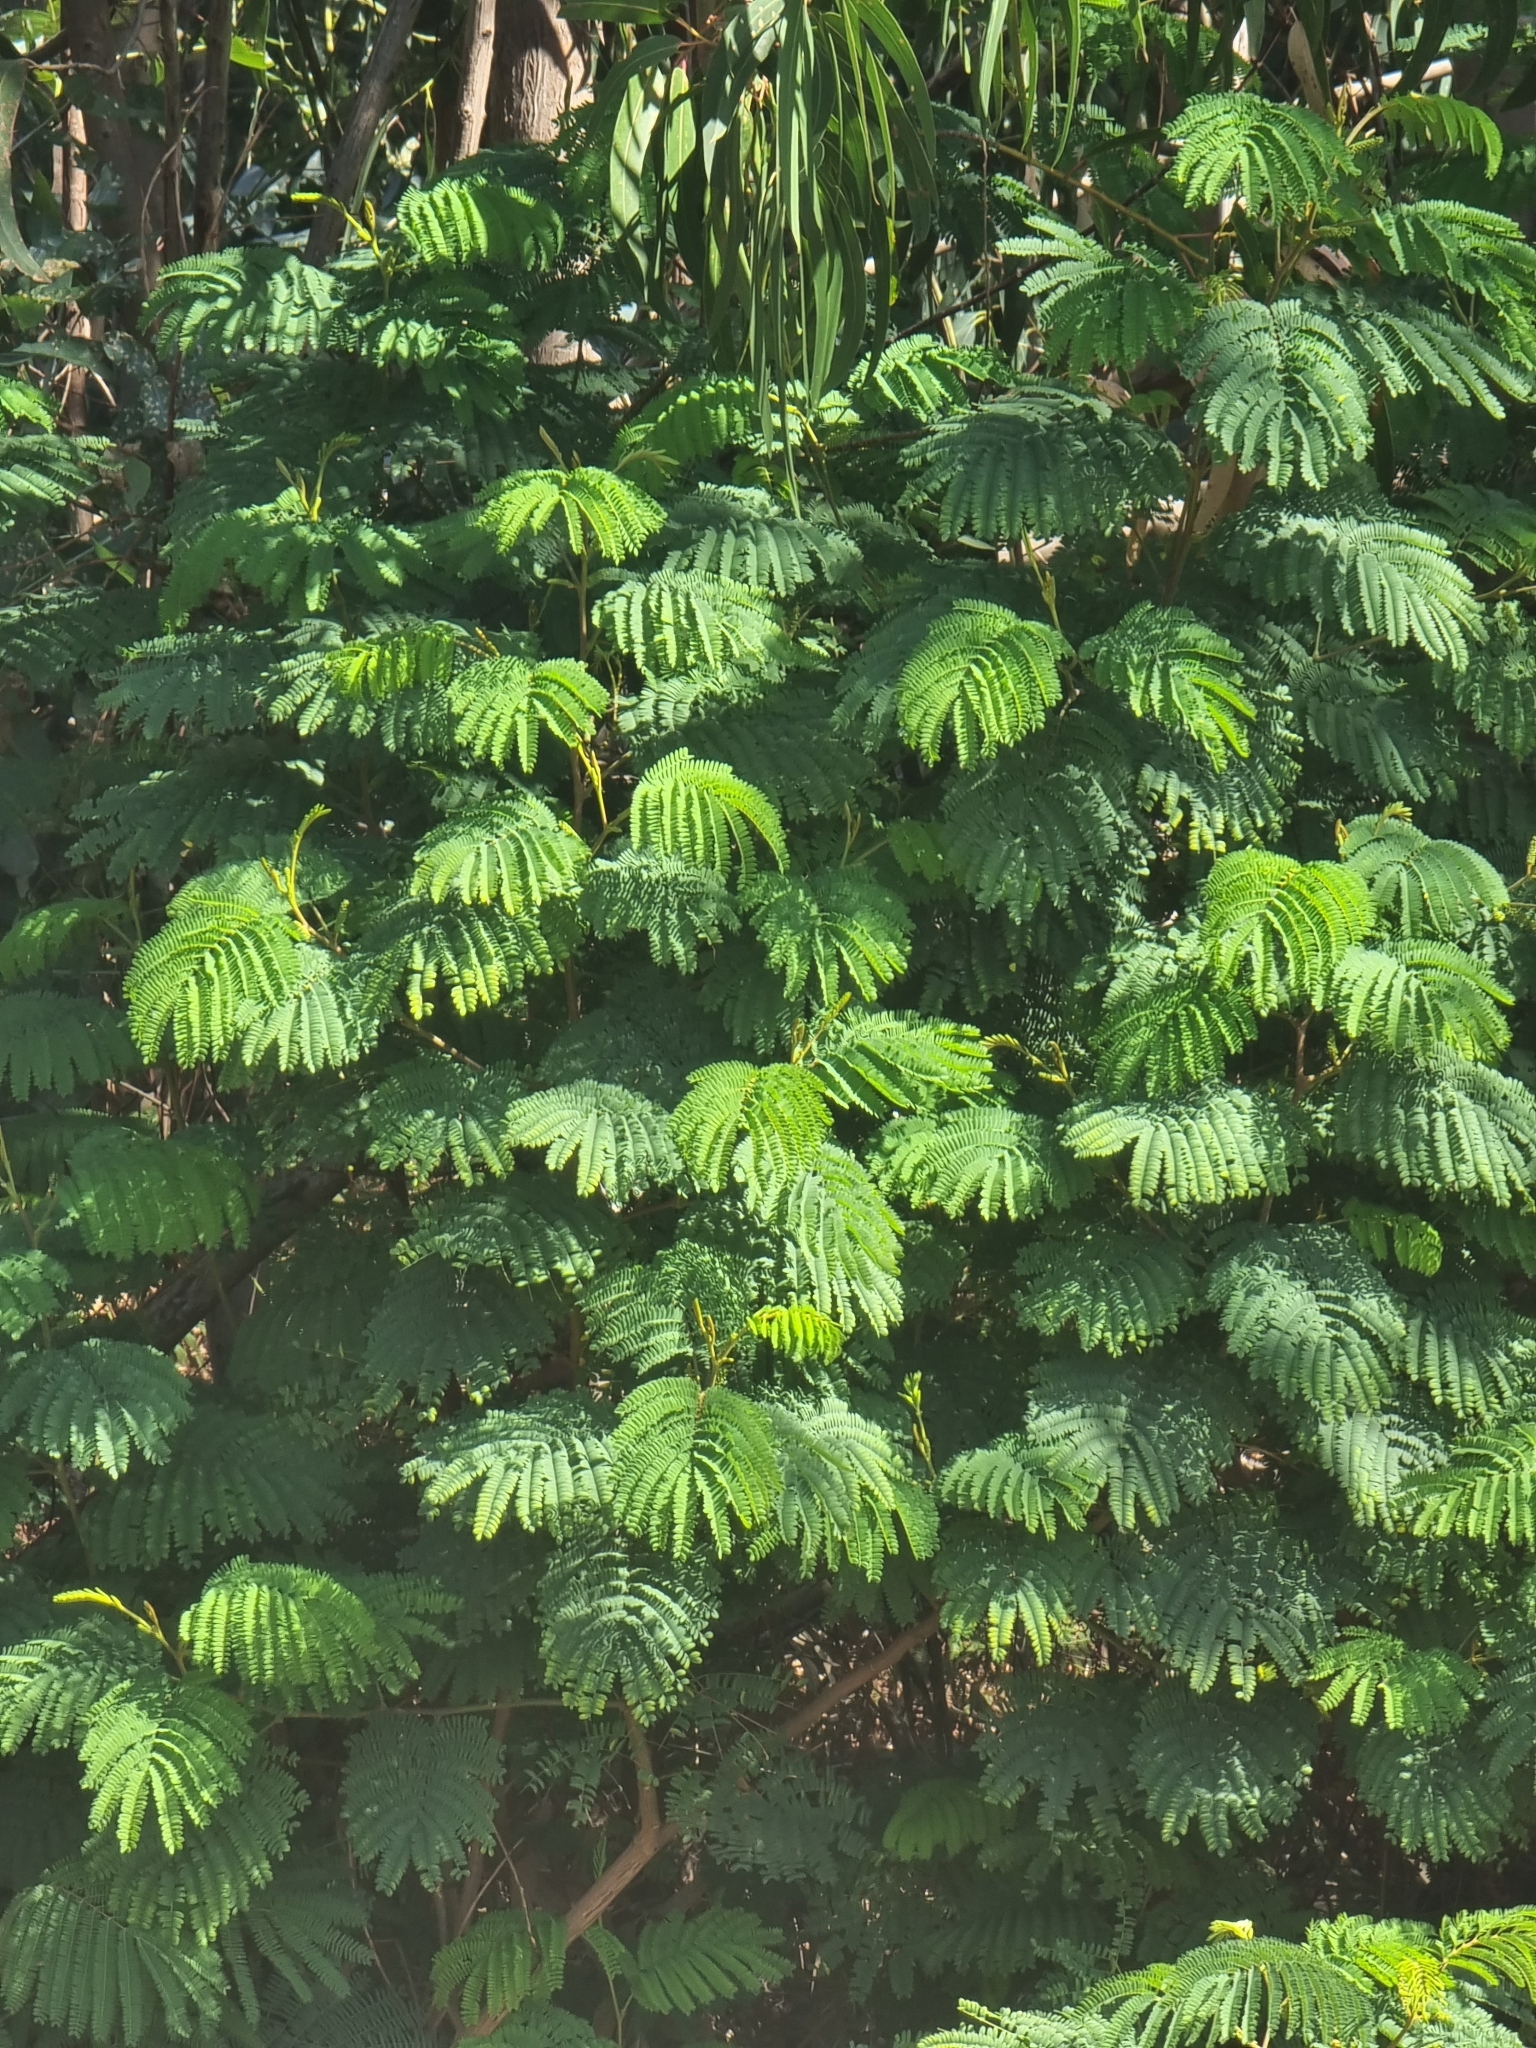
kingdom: Plantae
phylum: Tracheophyta
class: Magnoliopsida
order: Fabales
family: Fabaceae
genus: Paraserianthes
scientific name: Paraserianthes lophantha
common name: Plume albizia
